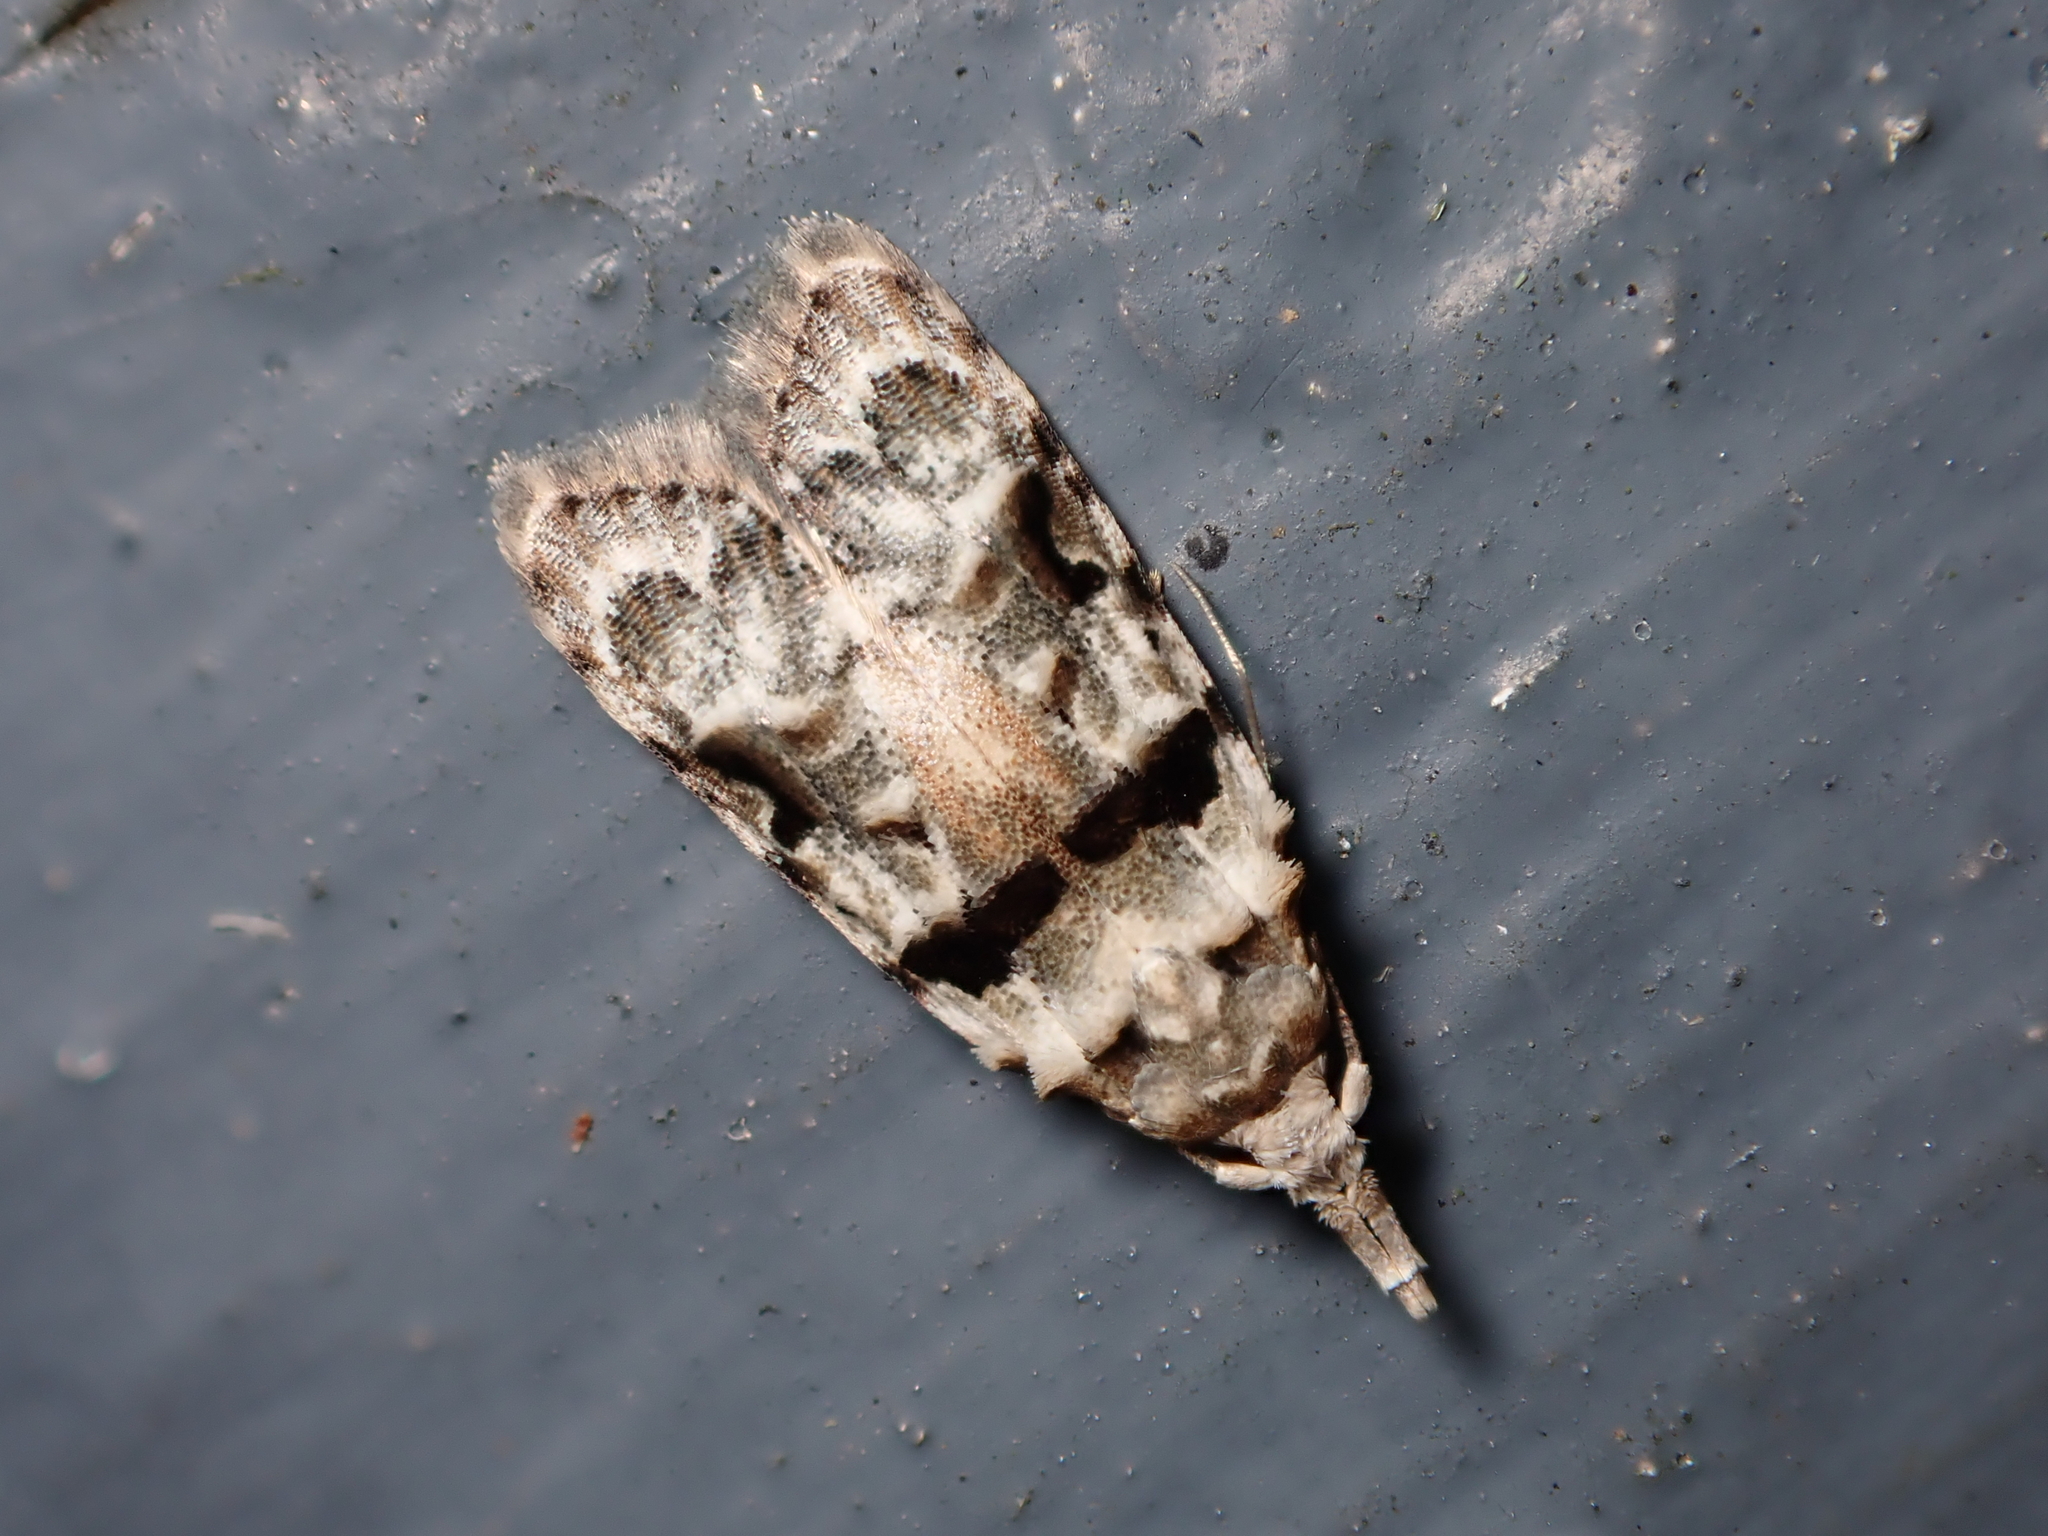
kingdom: Animalia
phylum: Arthropoda
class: Insecta
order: Lepidoptera
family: Carposinidae
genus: Coscinoptycha
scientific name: Coscinoptycha improbana
